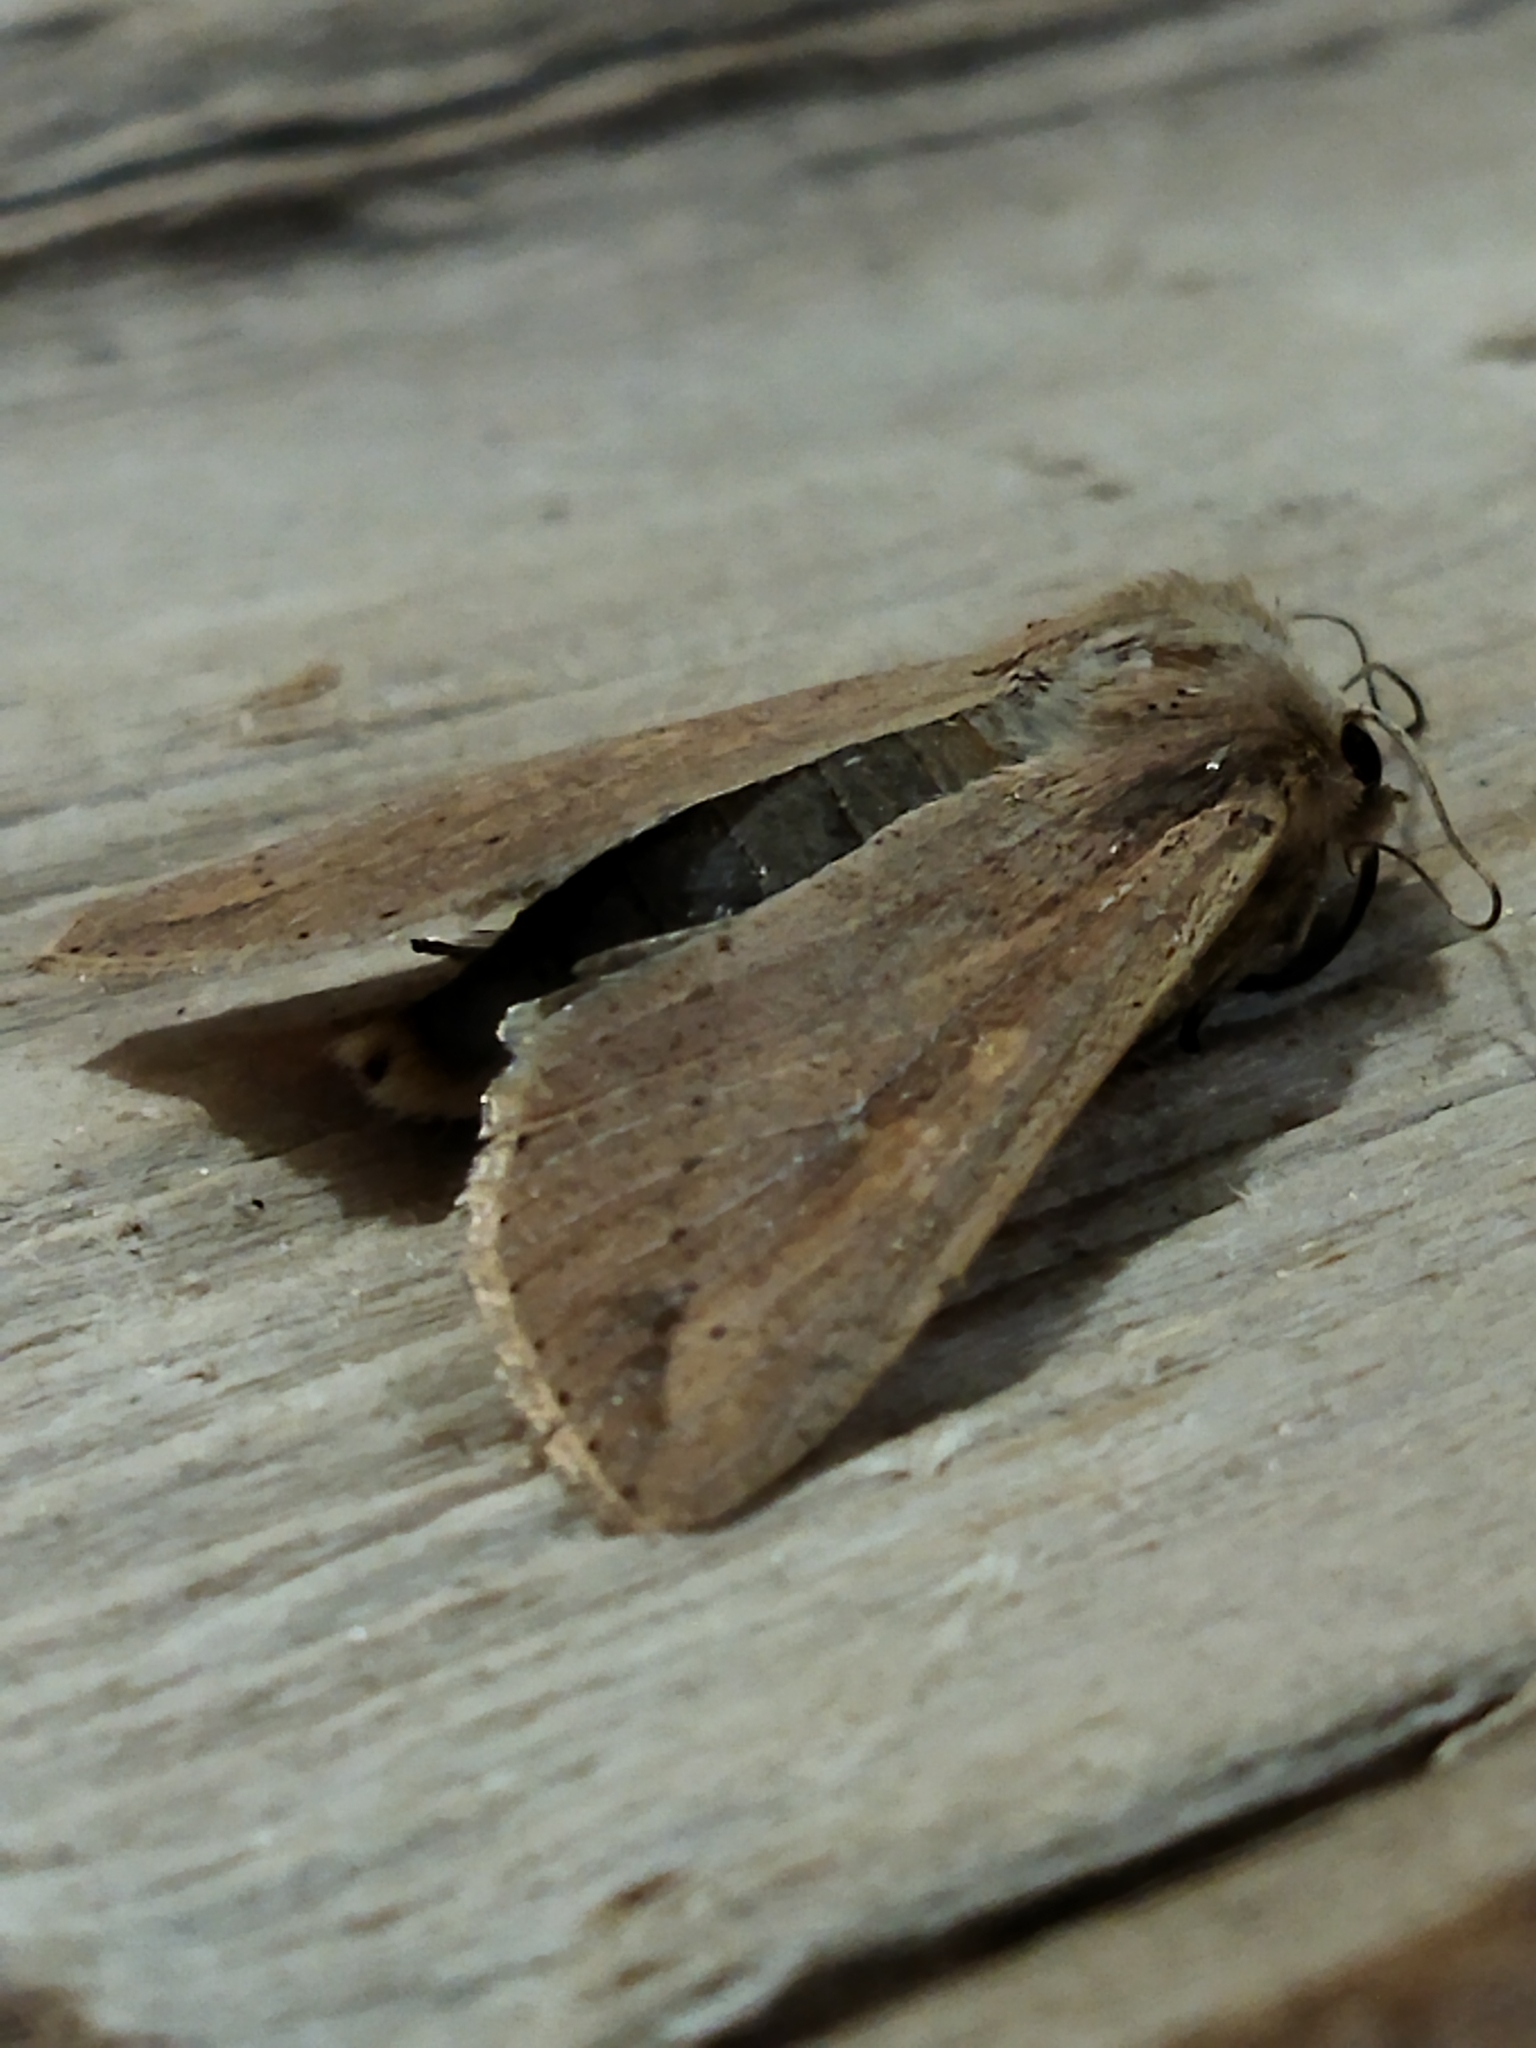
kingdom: Animalia
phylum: Arthropoda
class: Insecta
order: Lepidoptera
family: Noctuidae
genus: Mythimna
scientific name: Mythimna unipuncta
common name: White-speck
